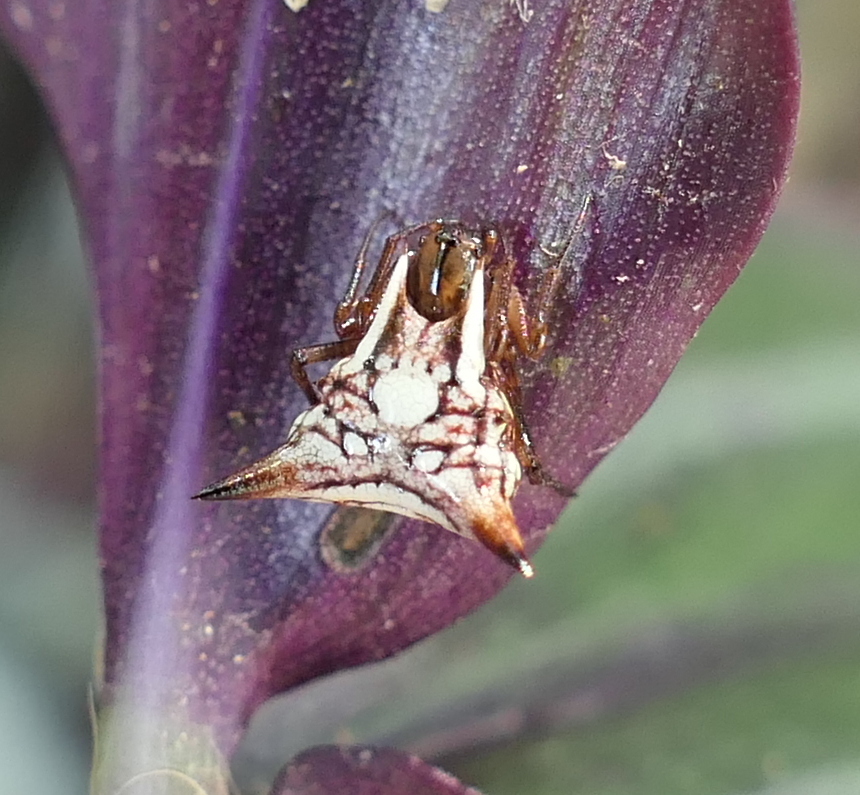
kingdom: Animalia
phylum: Arthropoda
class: Arachnida
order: Araneae
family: Araneidae
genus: Micrathena
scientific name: Micrathena evansi
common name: Orb weavers
